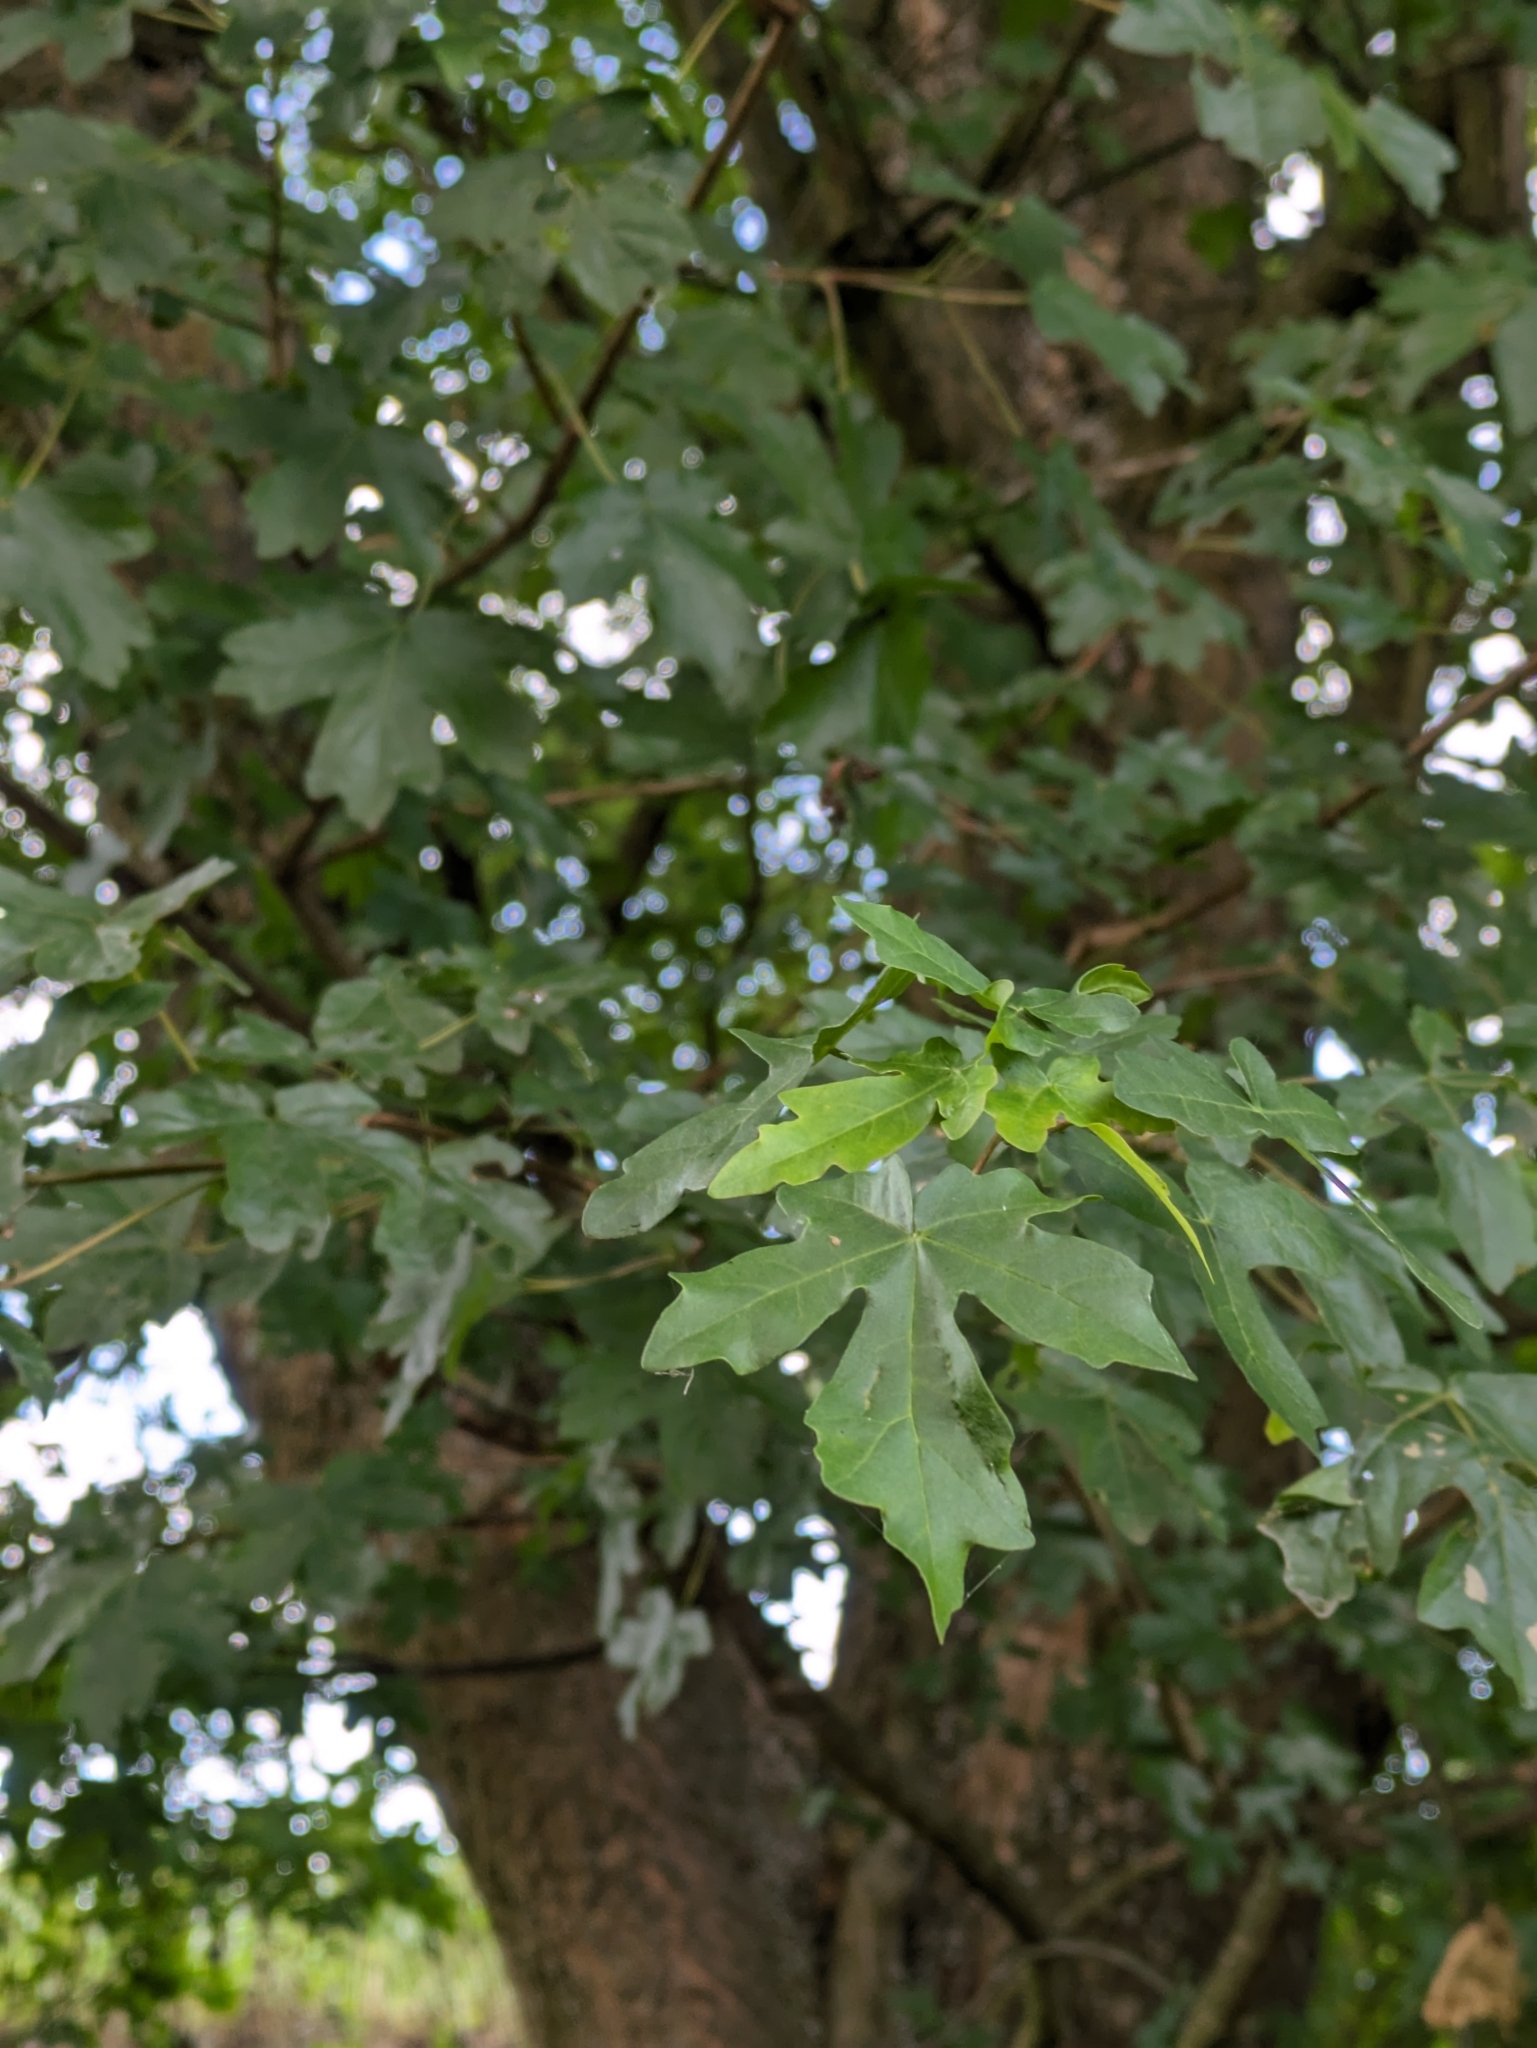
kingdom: Plantae
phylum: Tracheophyta
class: Magnoliopsida
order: Sapindales
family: Sapindaceae
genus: Acer
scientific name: Acer campestre
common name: Field maple
